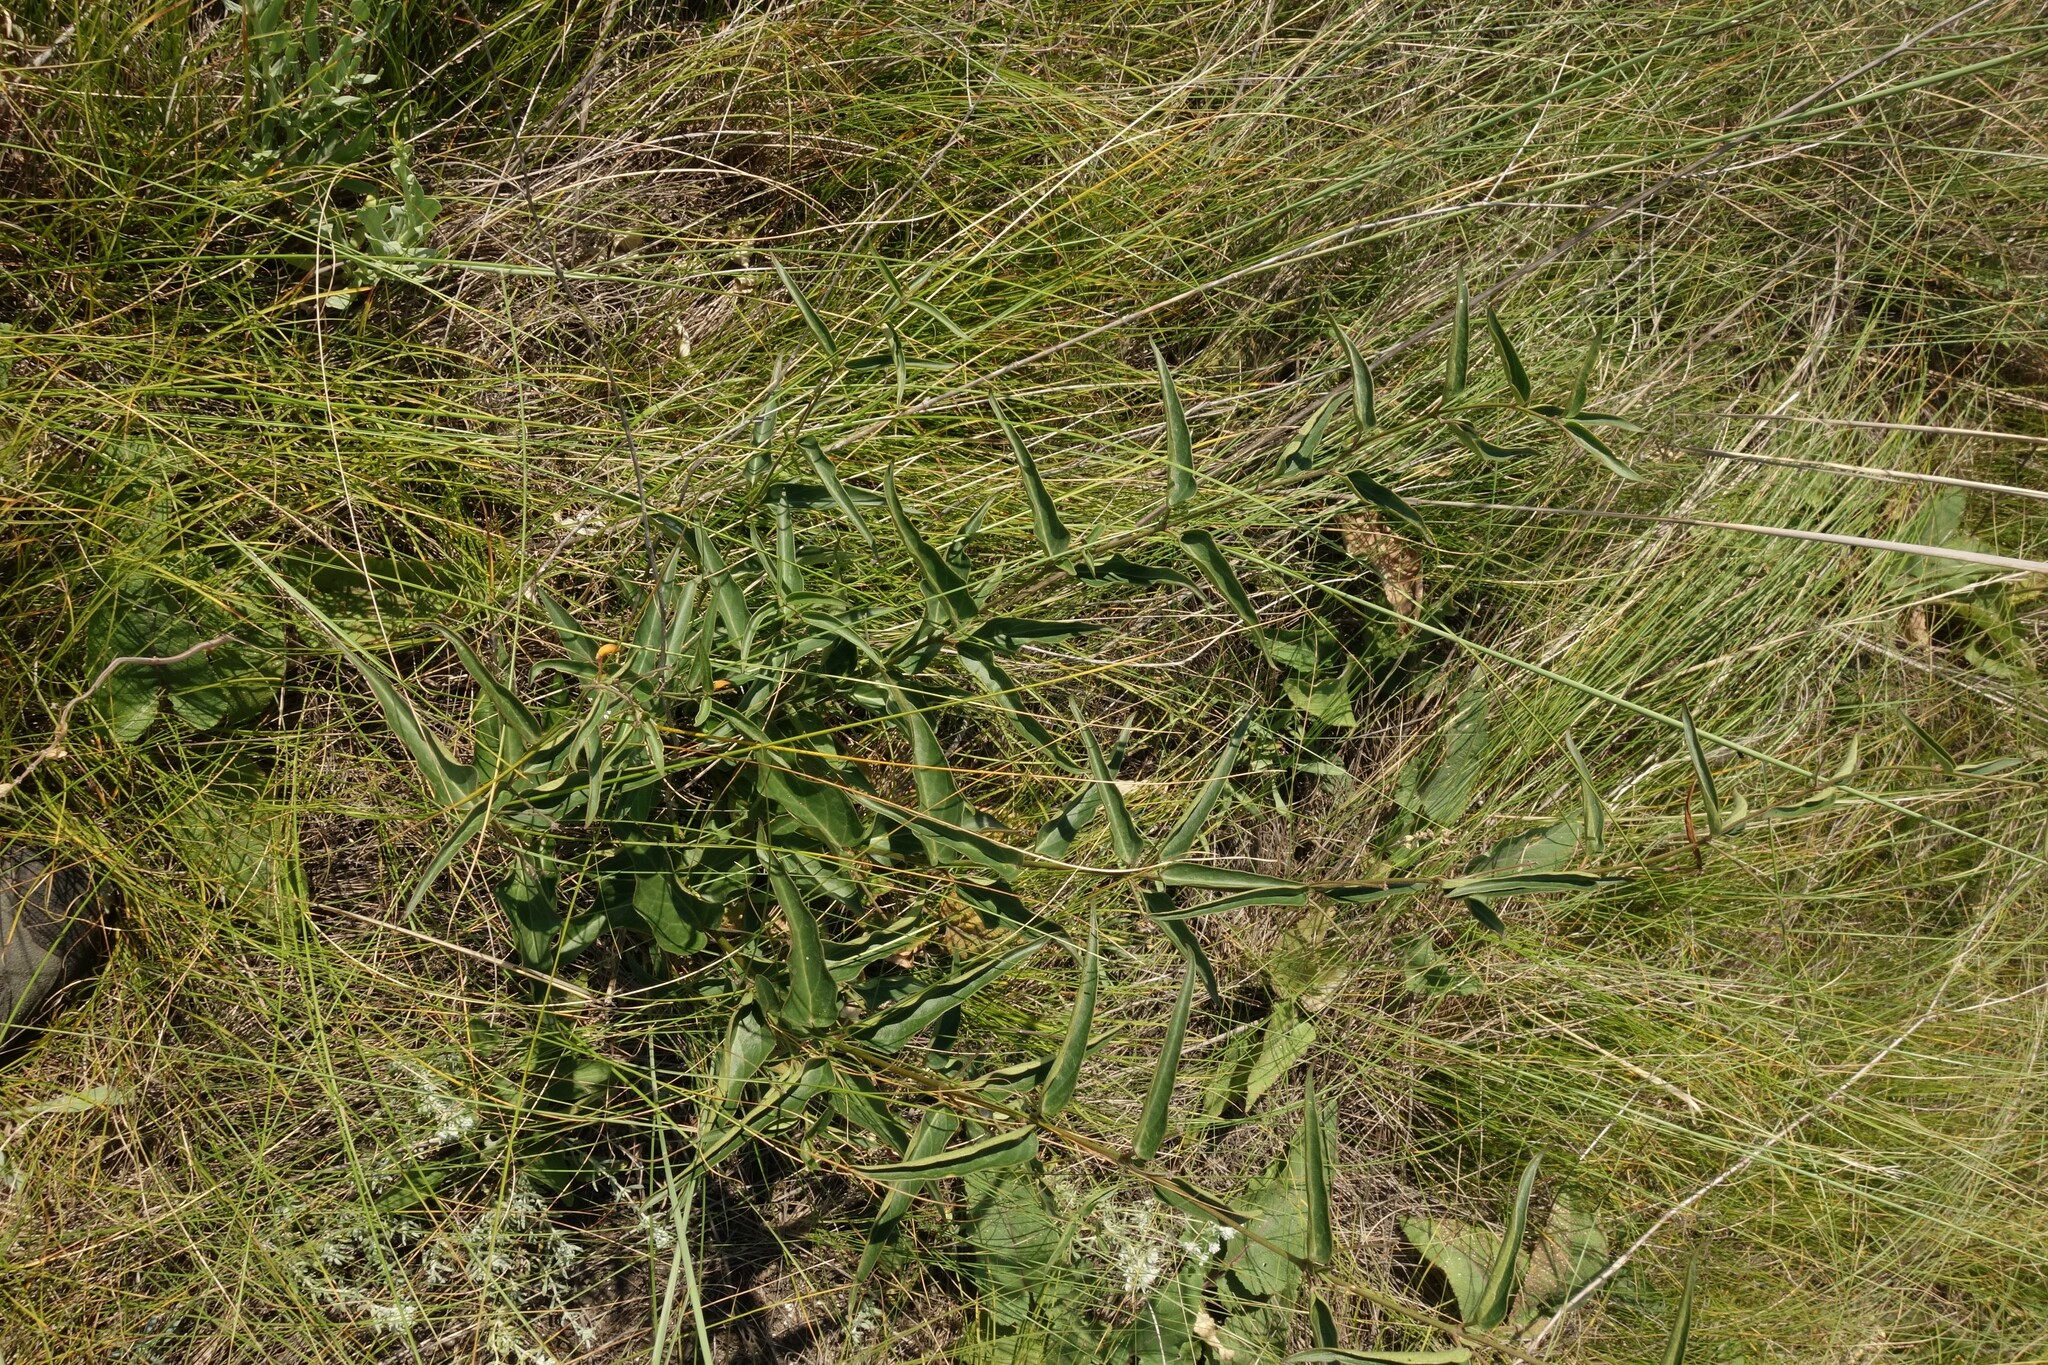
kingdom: Plantae
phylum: Tracheophyta
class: Magnoliopsida
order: Gentianales
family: Apocynaceae
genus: Vincetoxicum
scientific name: Vincetoxicum hirundinaria
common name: White swallowwort
